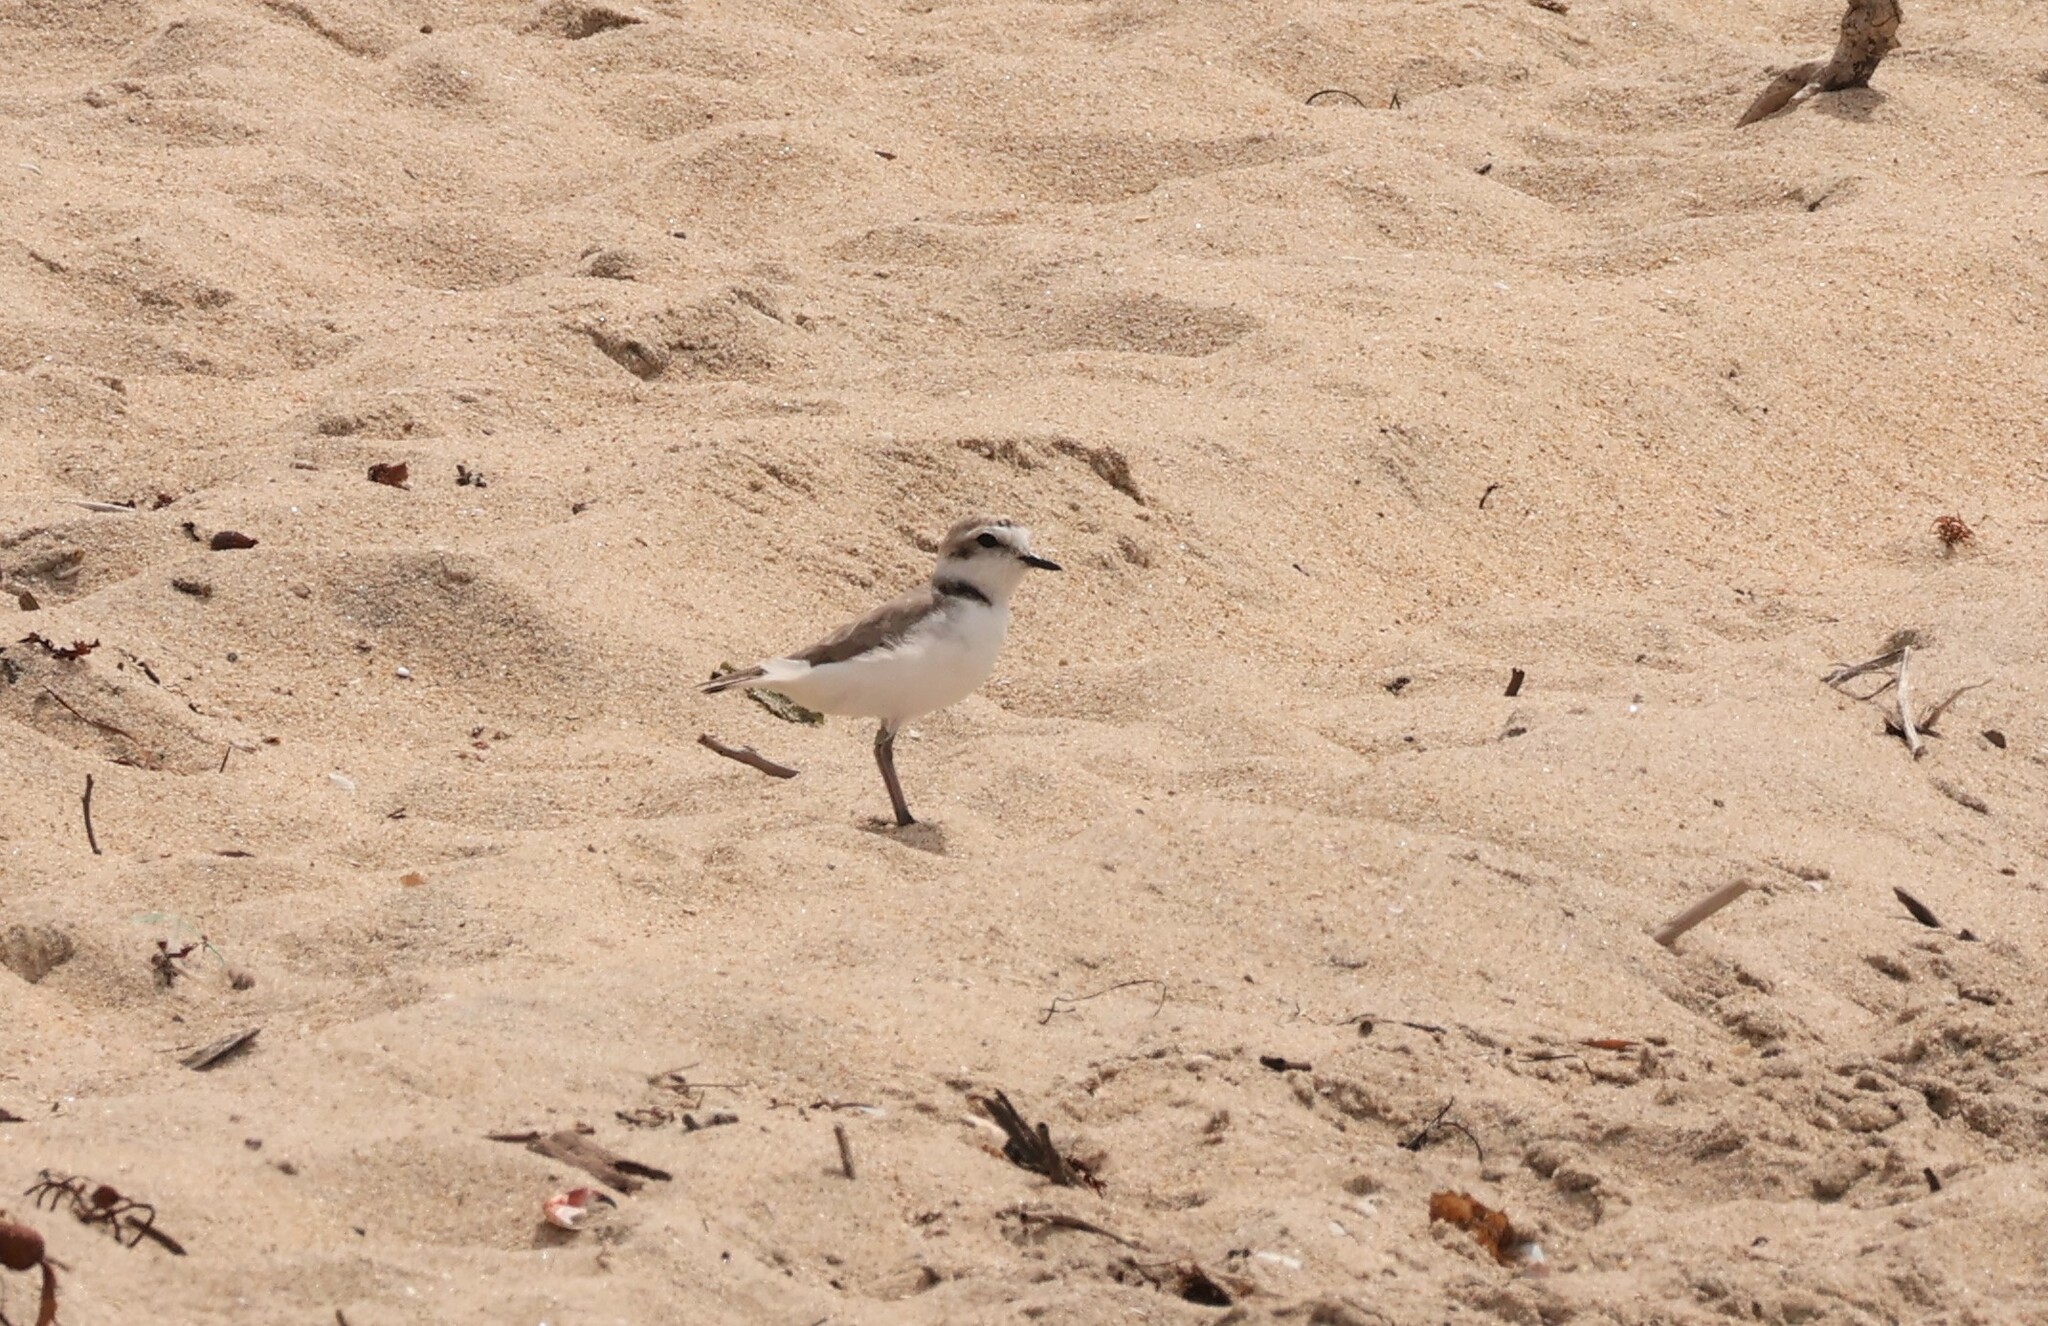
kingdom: Animalia
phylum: Chordata
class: Aves
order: Charadriiformes
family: Charadriidae
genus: Anarhynchus
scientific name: Anarhynchus
